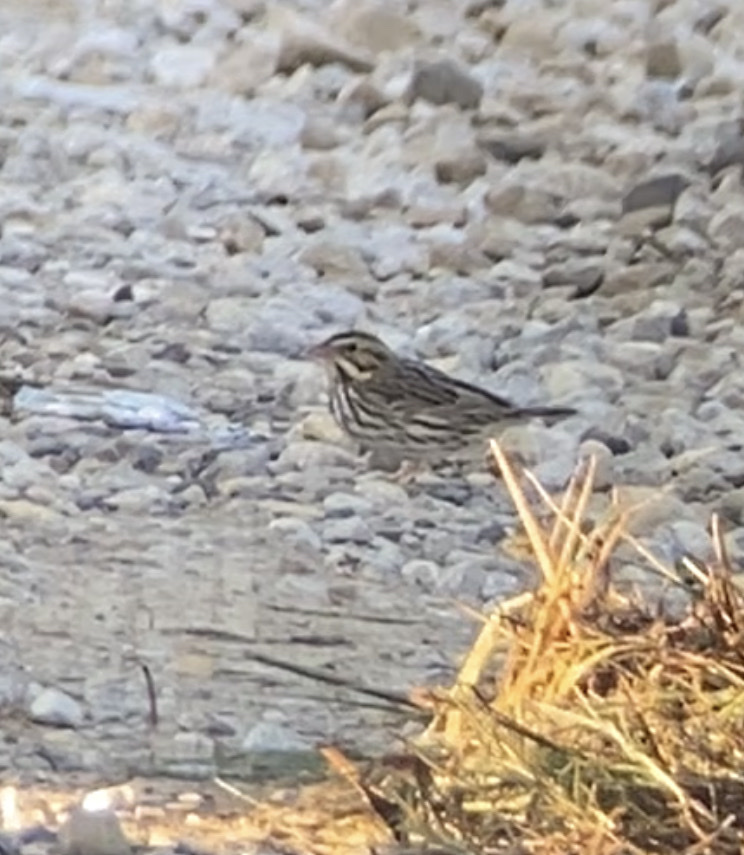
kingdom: Animalia
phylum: Chordata
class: Aves
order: Passeriformes
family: Passerellidae
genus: Passerculus
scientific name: Passerculus sandwichensis
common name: Savannah sparrow
